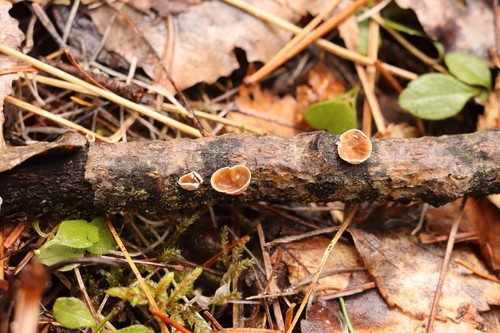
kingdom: Fungi
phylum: Basidiomycota
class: Agaricomycetes
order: Agaricales
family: Schizophyllaceae
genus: Schizophyllum
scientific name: Schizophyllum amplum
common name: Poplar bells
